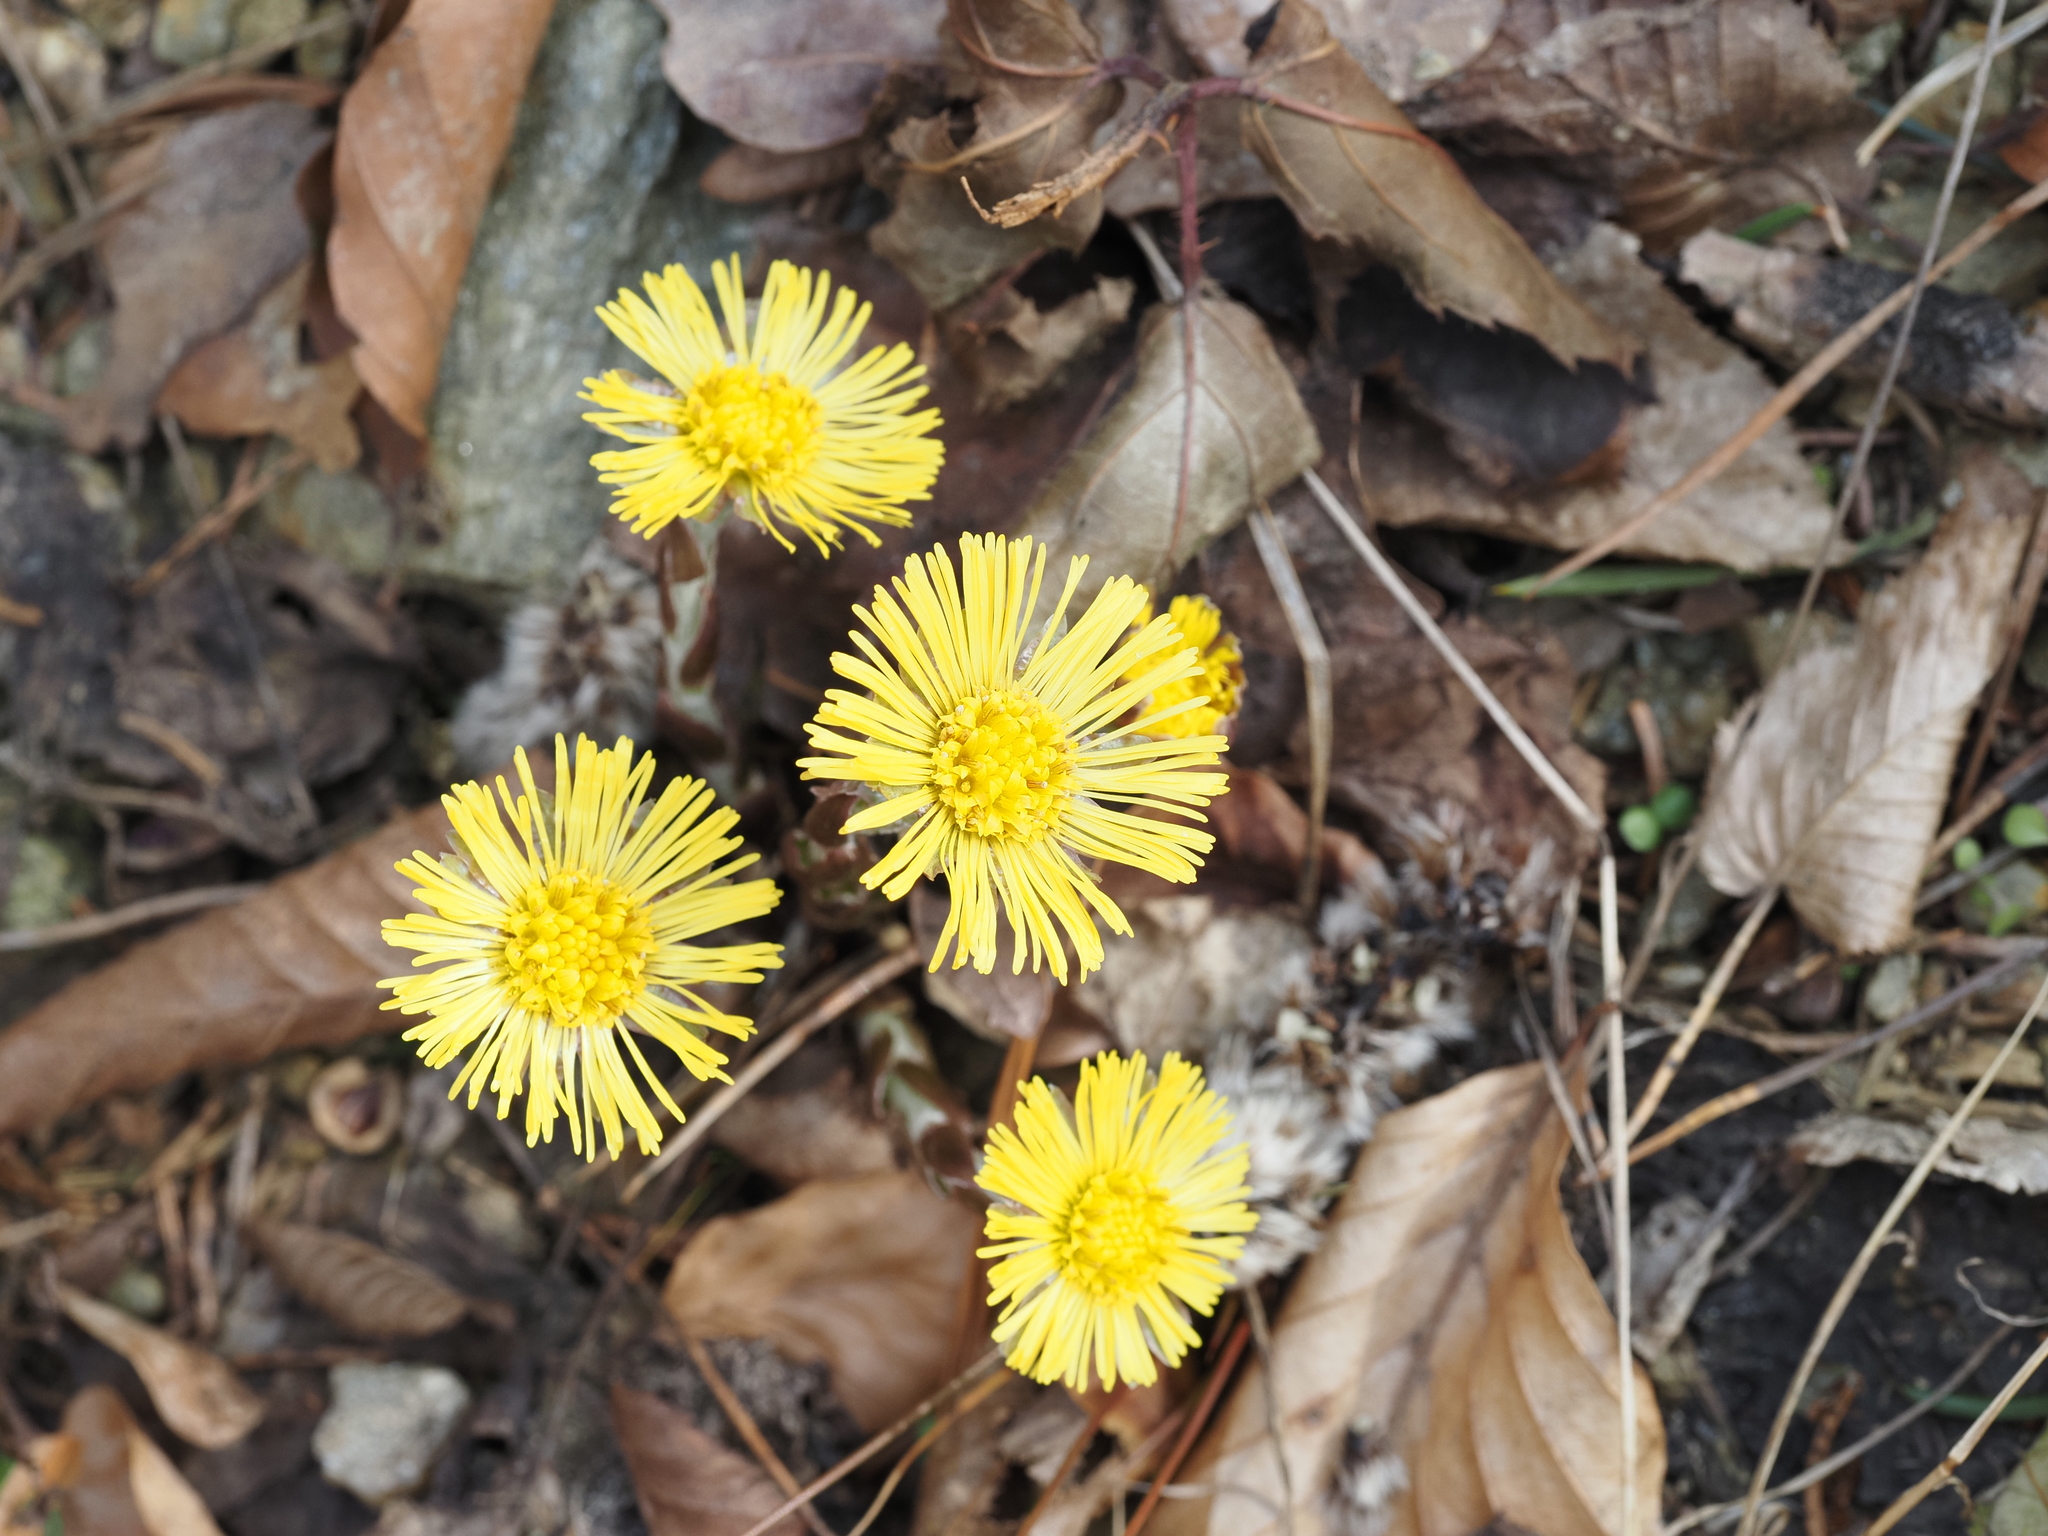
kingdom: Plantae
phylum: Tracheophyta
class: Magnoliopsida
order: Asterales
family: Asteraceae
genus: Tussilago
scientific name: Tussilago farfara
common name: Coltsfoot
